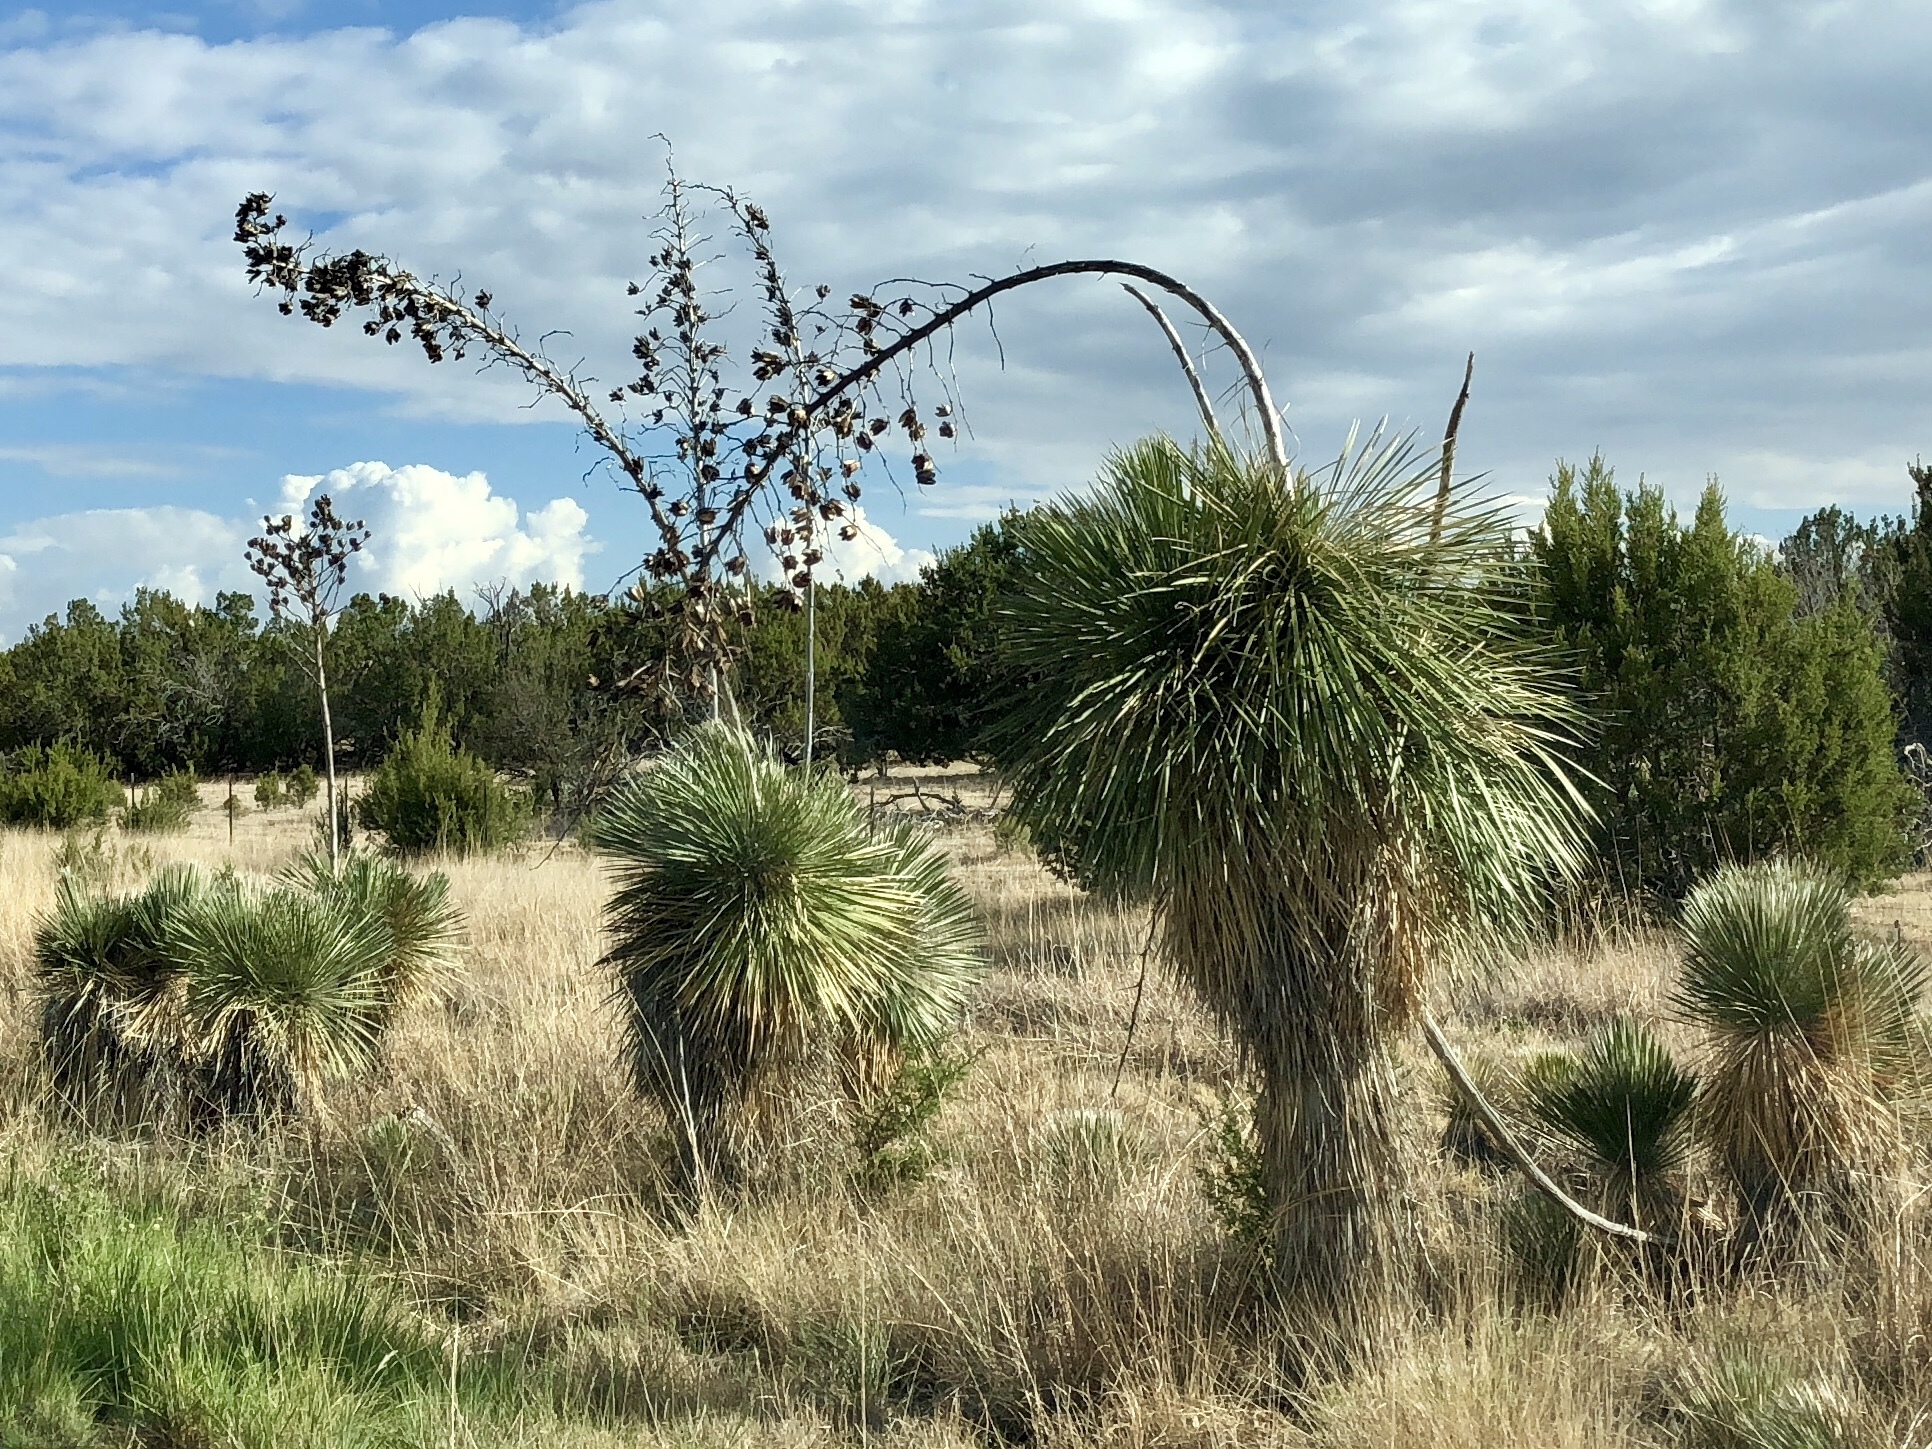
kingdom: Plantae
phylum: Tracheophyta
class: Liliopsida
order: Asparagales
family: Asparagaceae
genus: Yucca
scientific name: Yucca elata
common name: Palmella
